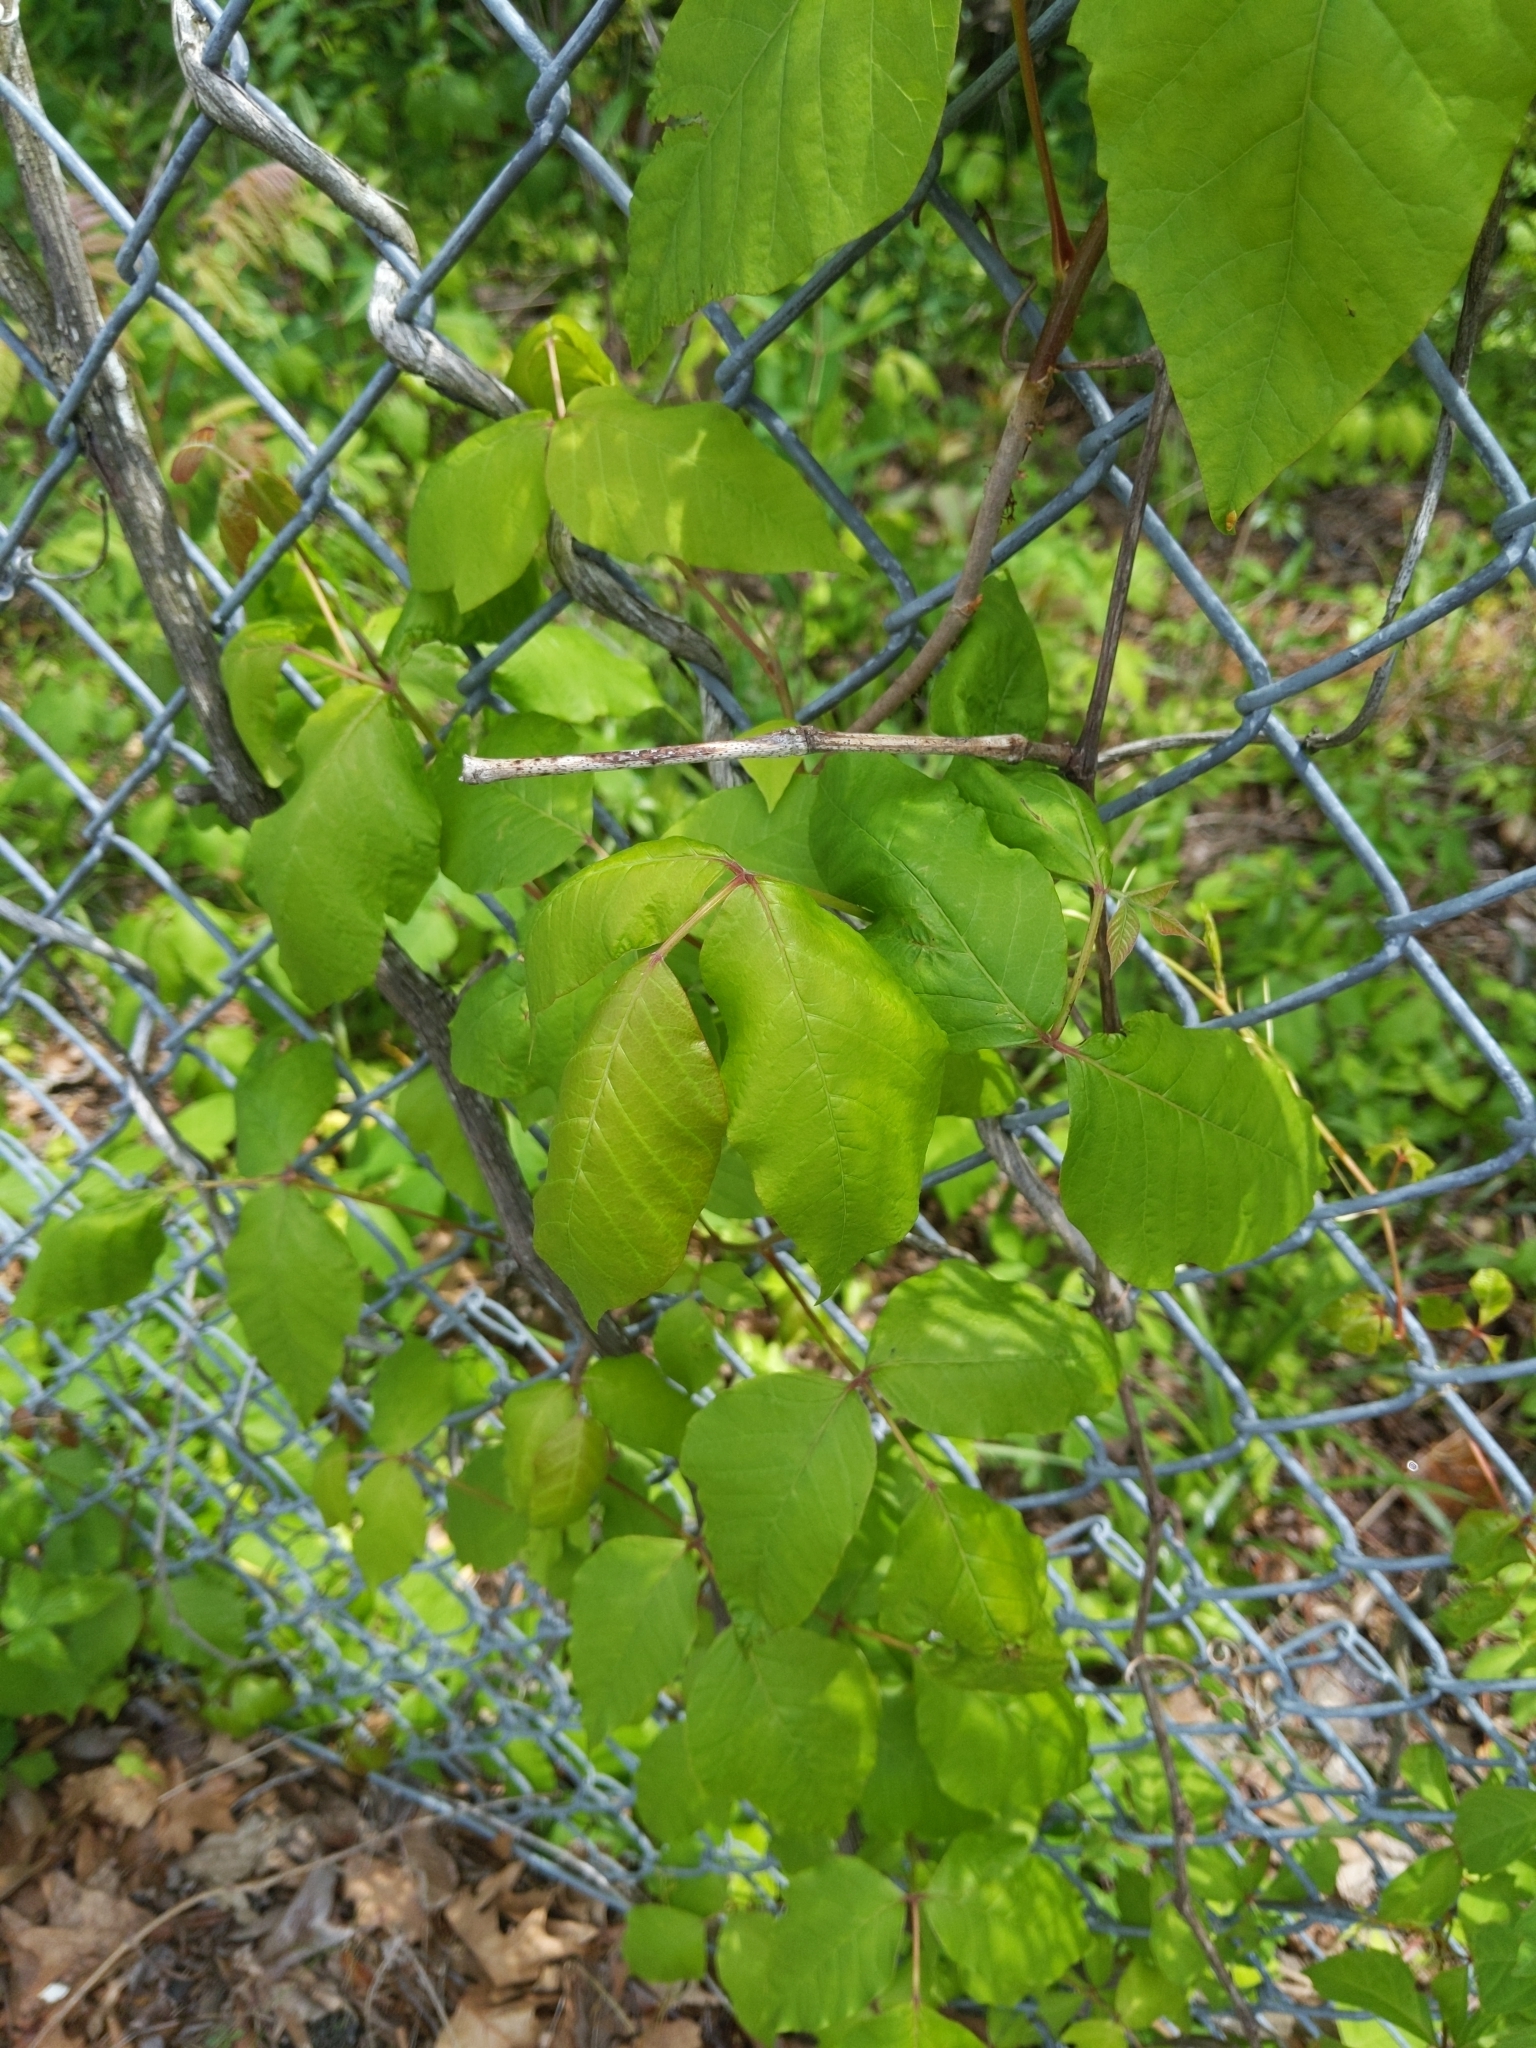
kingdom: Plantae
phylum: Tracheophyta
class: Magnoliopsida
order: Sapindales
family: Anacardiaceae
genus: Toxicodendron
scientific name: Toxicodendron radicans
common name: Poison ivy
